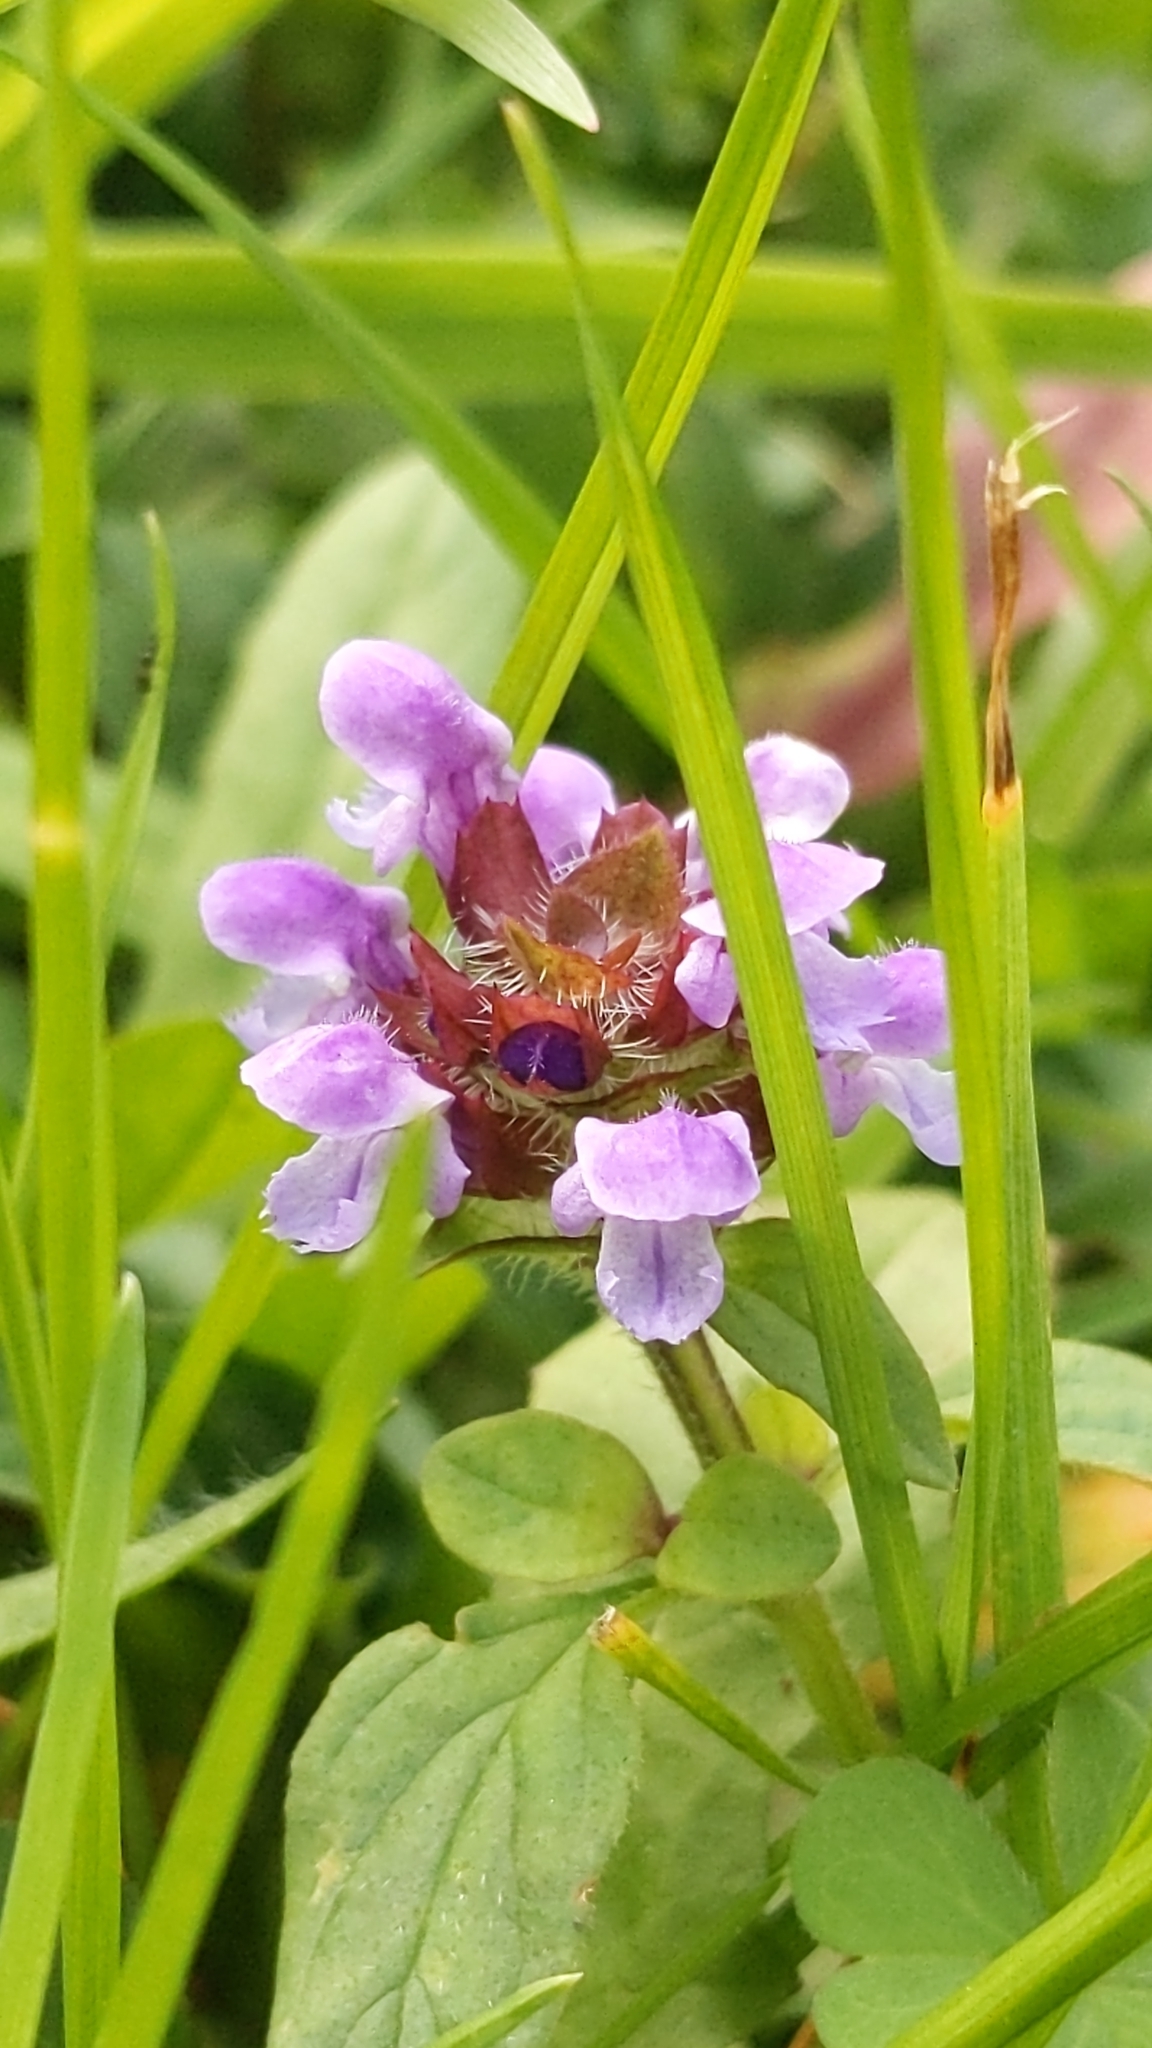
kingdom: Plantae
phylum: Tracheophyta
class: Magnoliopsida
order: Lamiales
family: Lamiaceae
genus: Prunella
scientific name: Prunella vulgaris
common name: Heal-all
